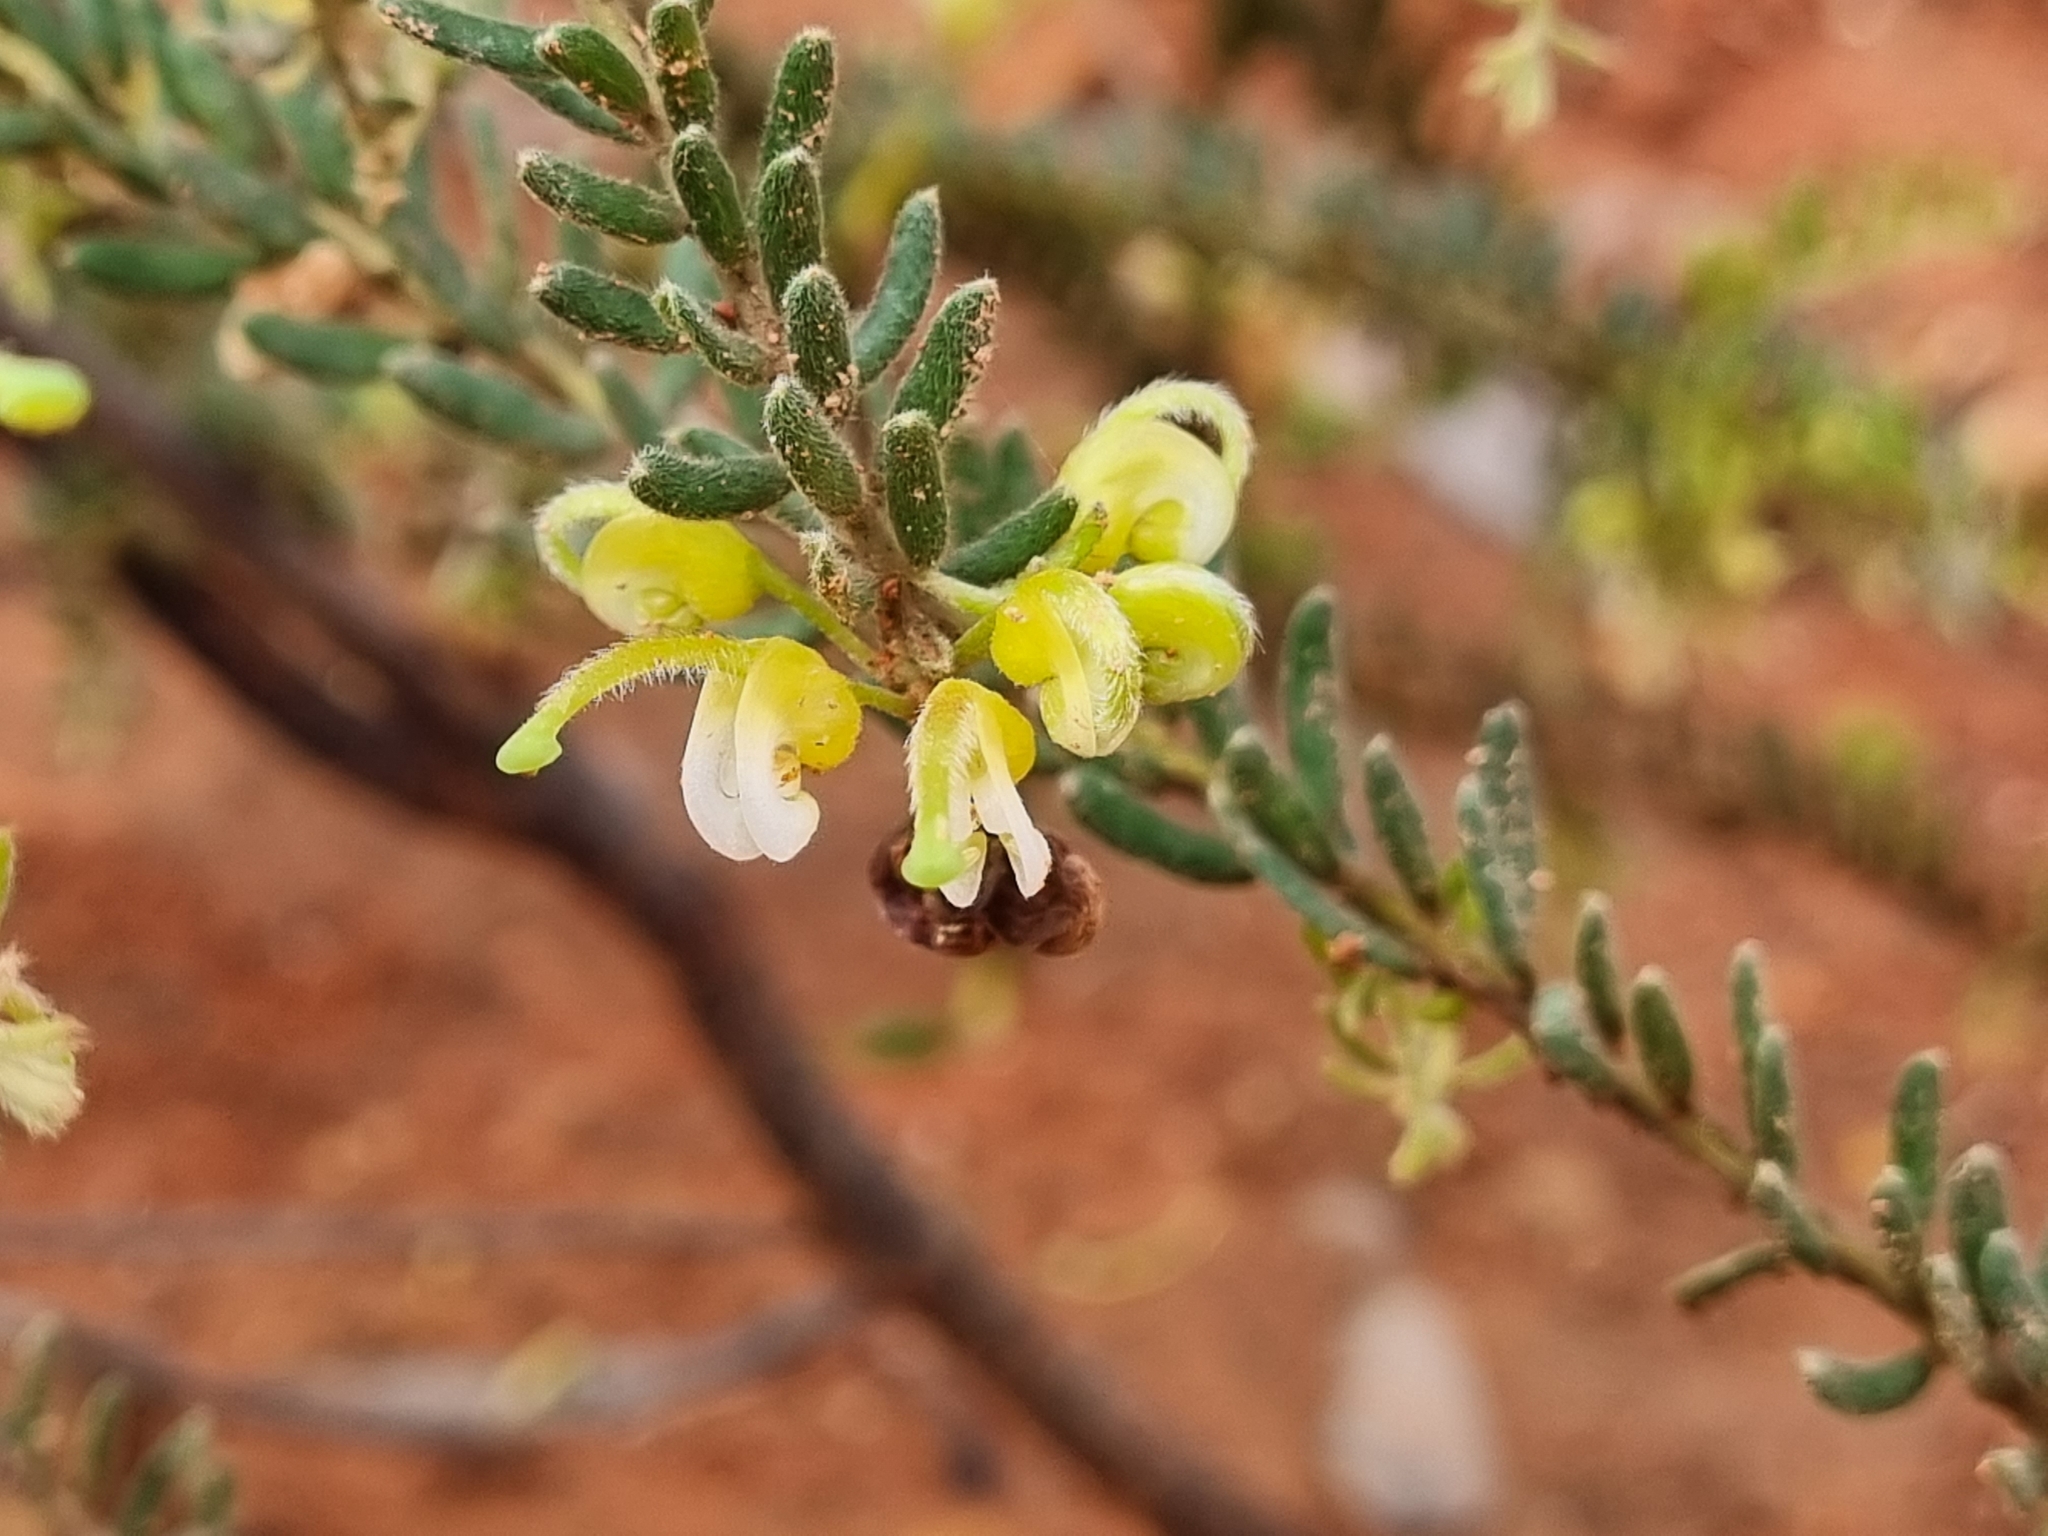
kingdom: Plantae
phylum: Tracheophyta
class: Magnoliopsida
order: Proteales
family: Proteaceae
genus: Grevillea
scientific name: Grevillea alpina
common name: Catclaws grevillea
